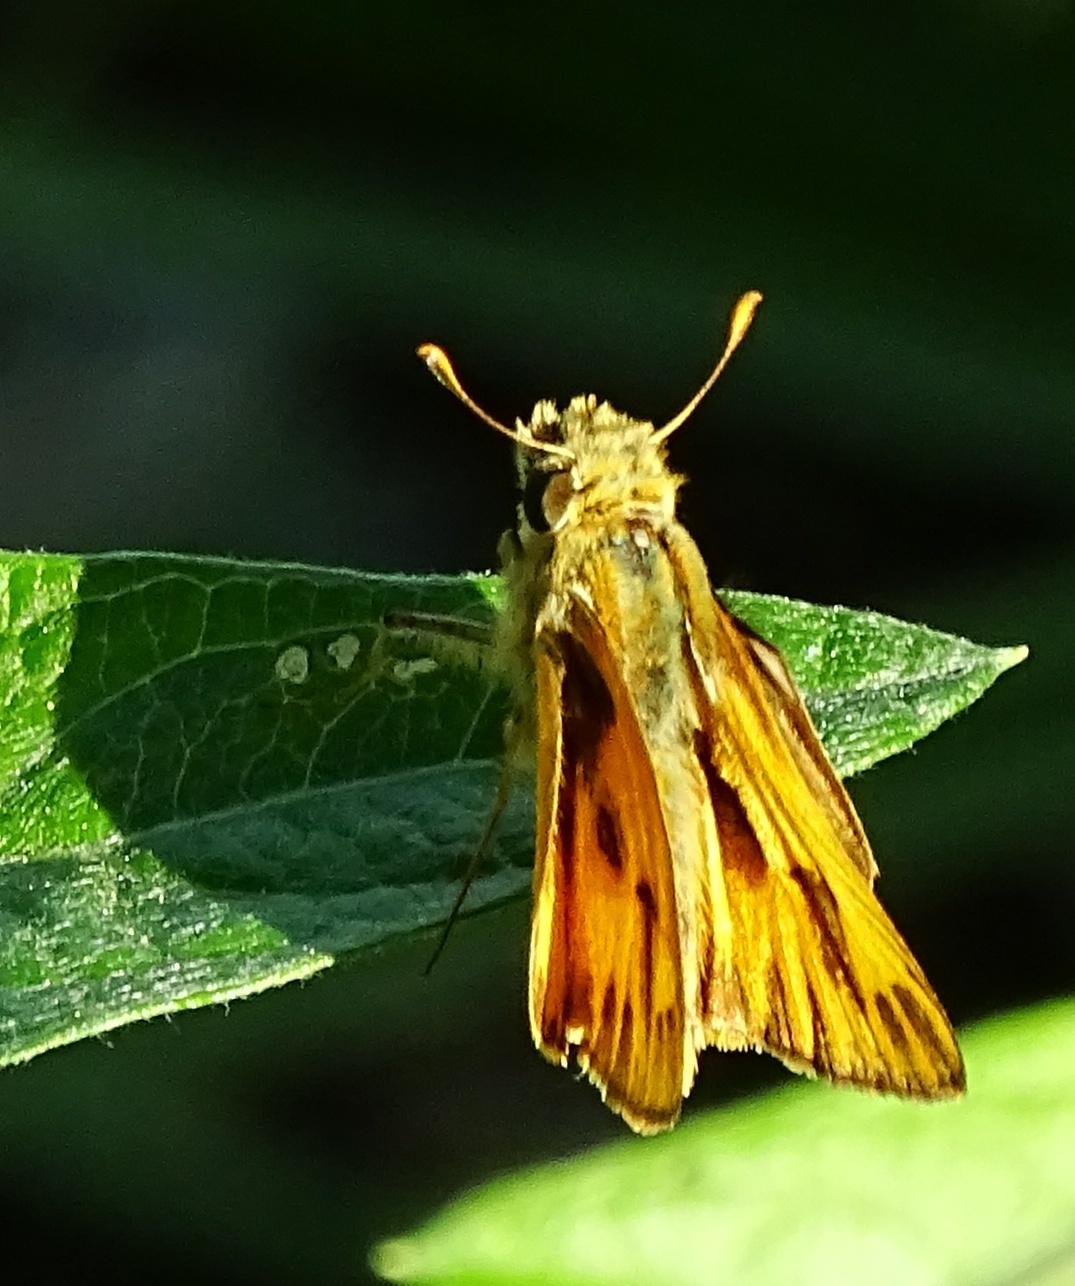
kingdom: Animalia
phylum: Arthropoda
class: Insecta
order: Lepidoptera
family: Hesperiidae
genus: Hylephila
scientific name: Hylephila phyleus
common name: Fiery skipper
